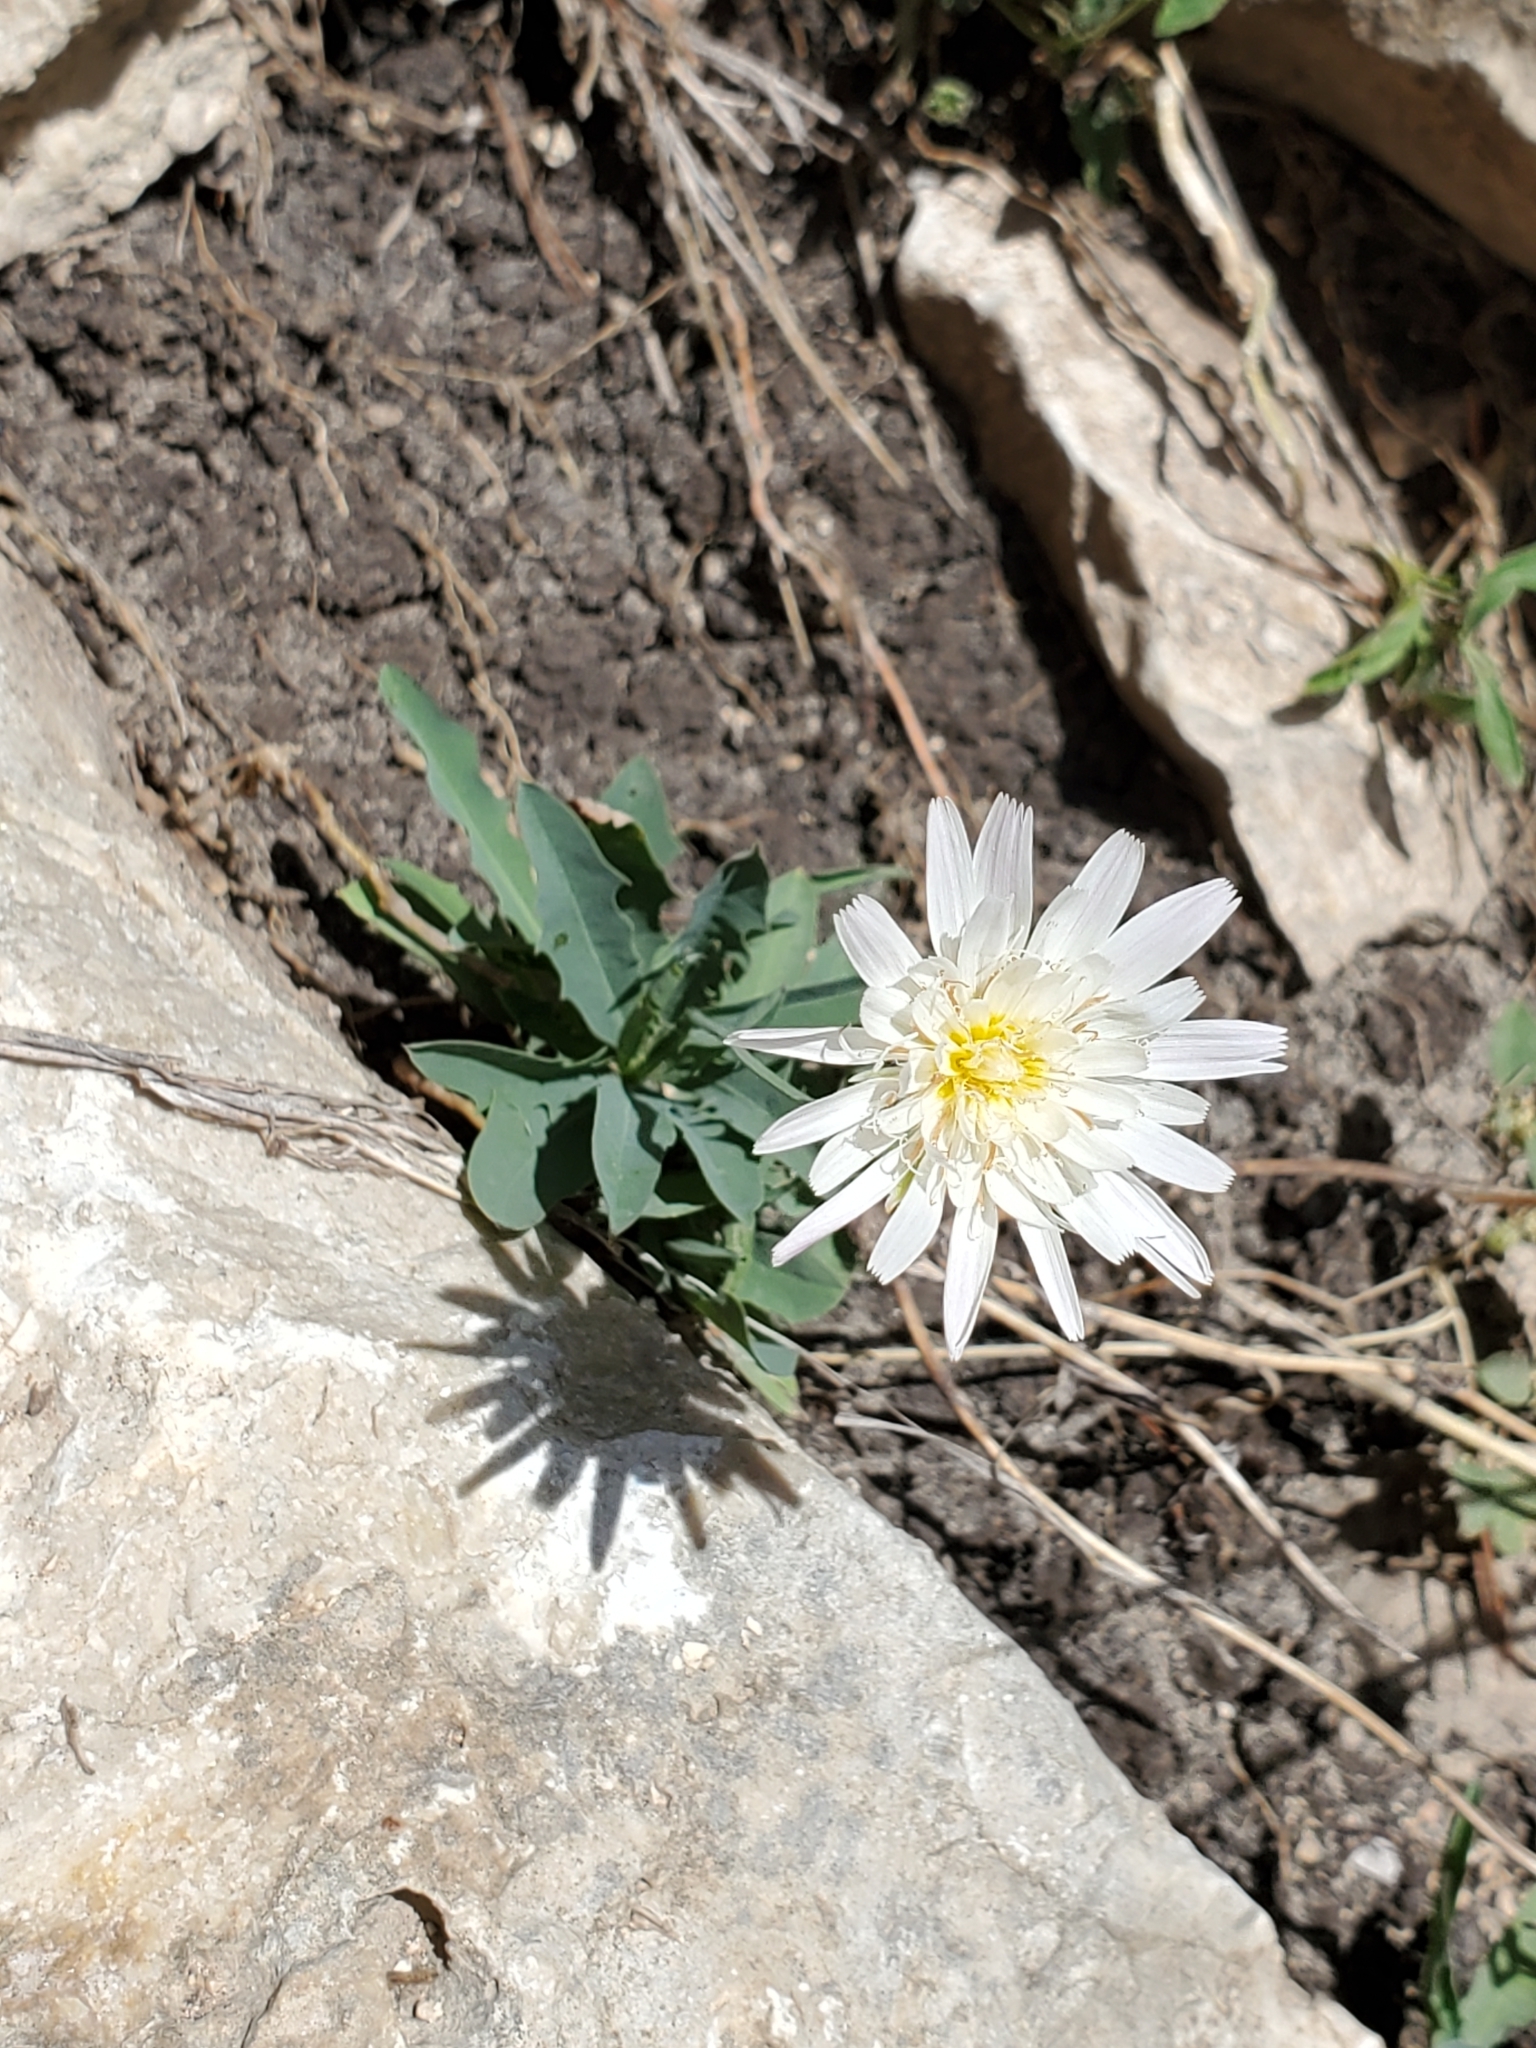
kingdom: Plantae
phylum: Tracheophyta
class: Magnoliopsida
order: Asterales
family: Asteraceae
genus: Pinaropappus
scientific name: Pinaropappus roseus
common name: Rock-lettuce
